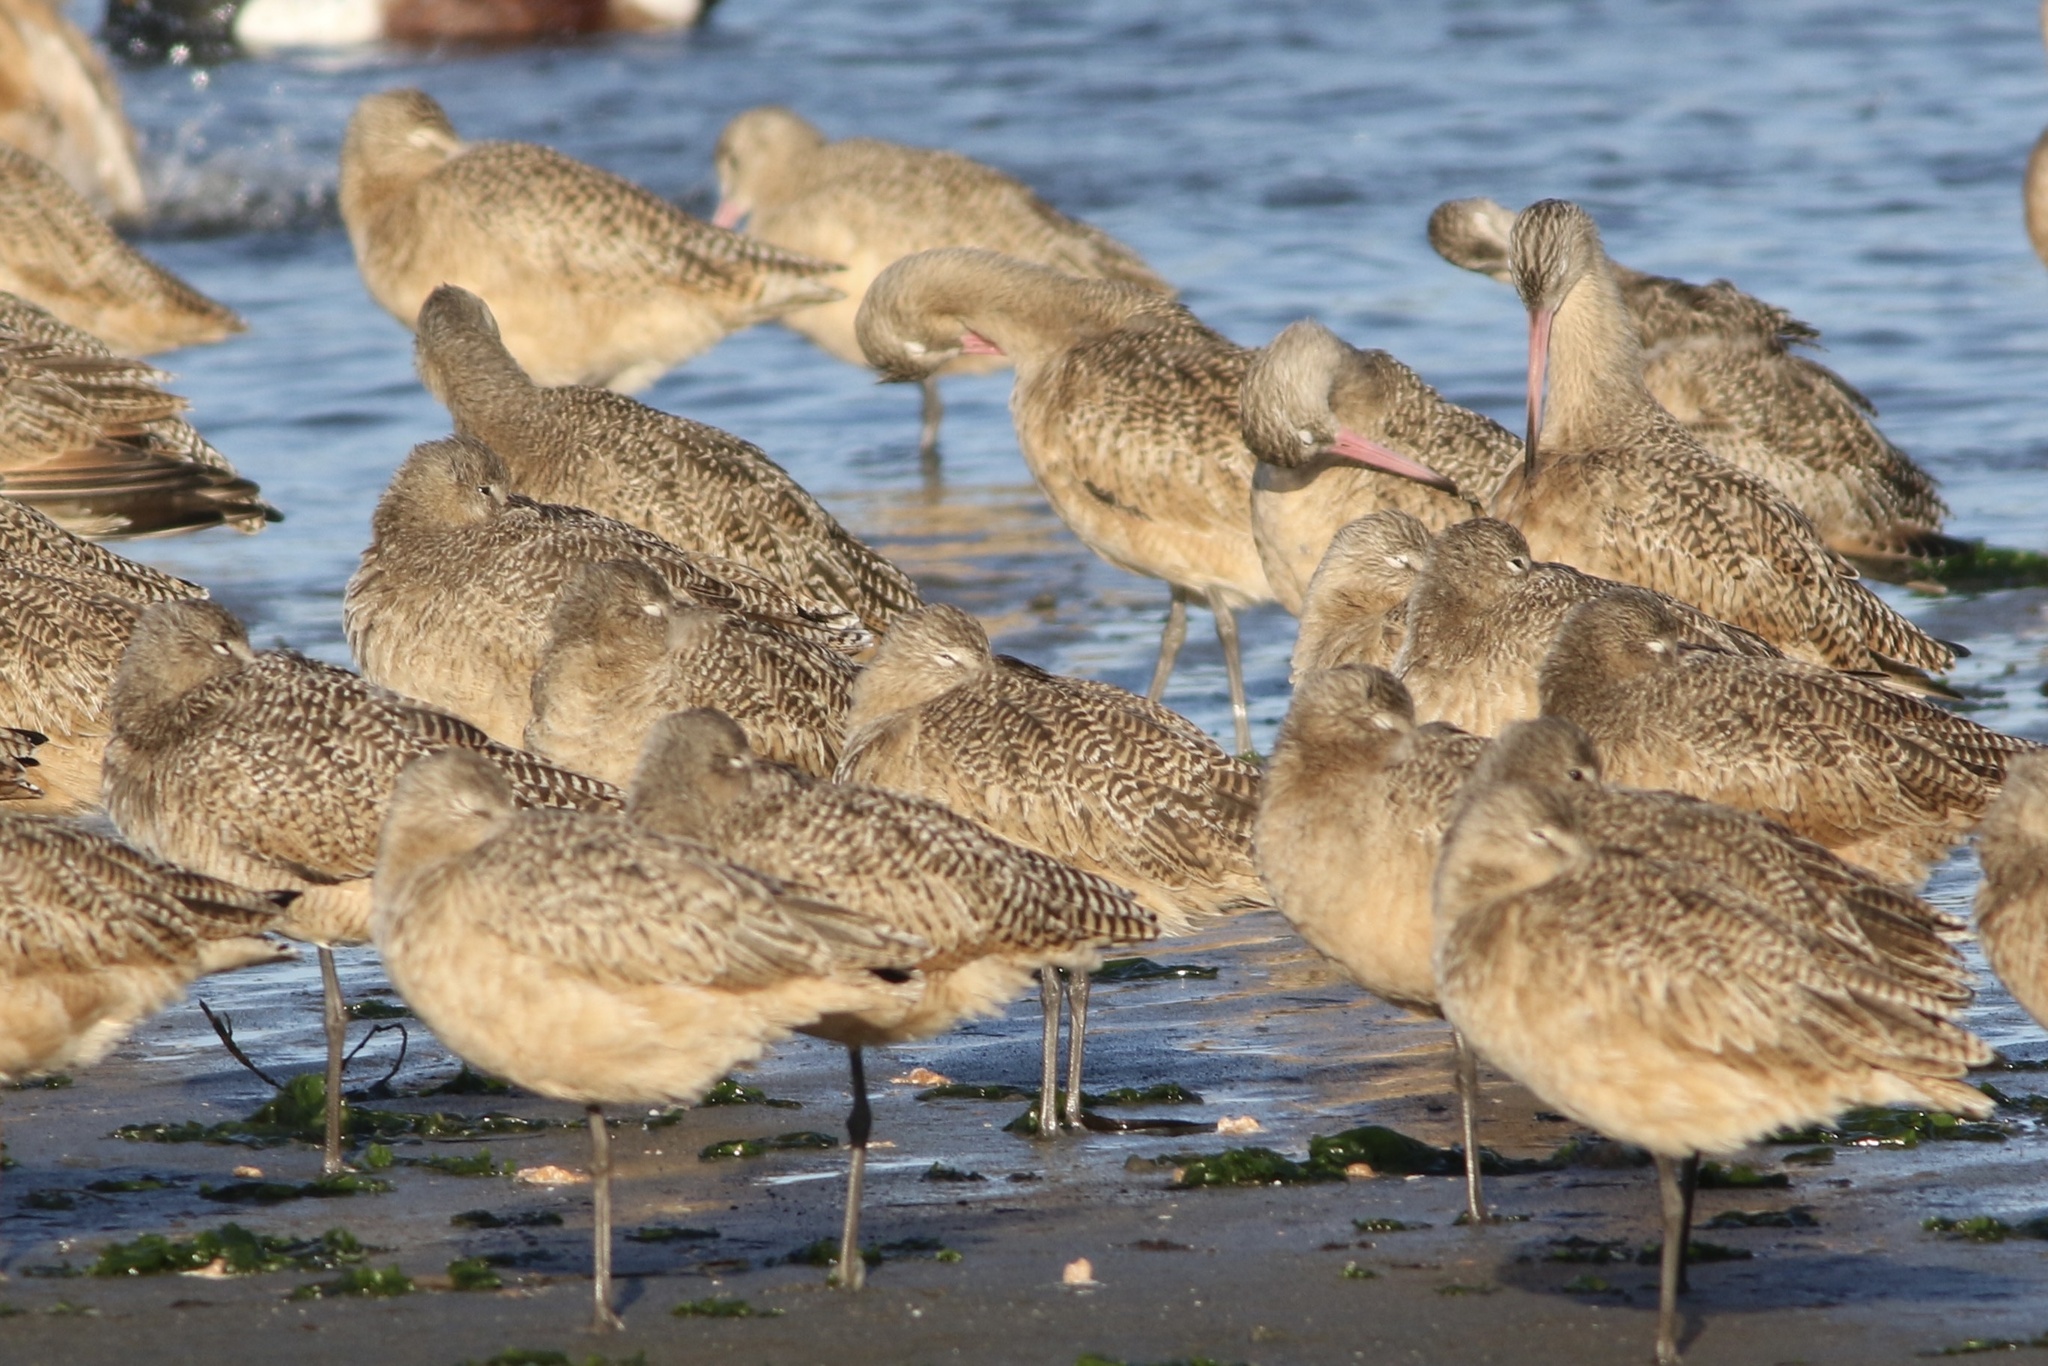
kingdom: Animalia
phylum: Chordata
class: Aves
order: Charadriiformes
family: Scolopacidae
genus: Limosa
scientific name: Limosa fedoa
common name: Marbled godwit
